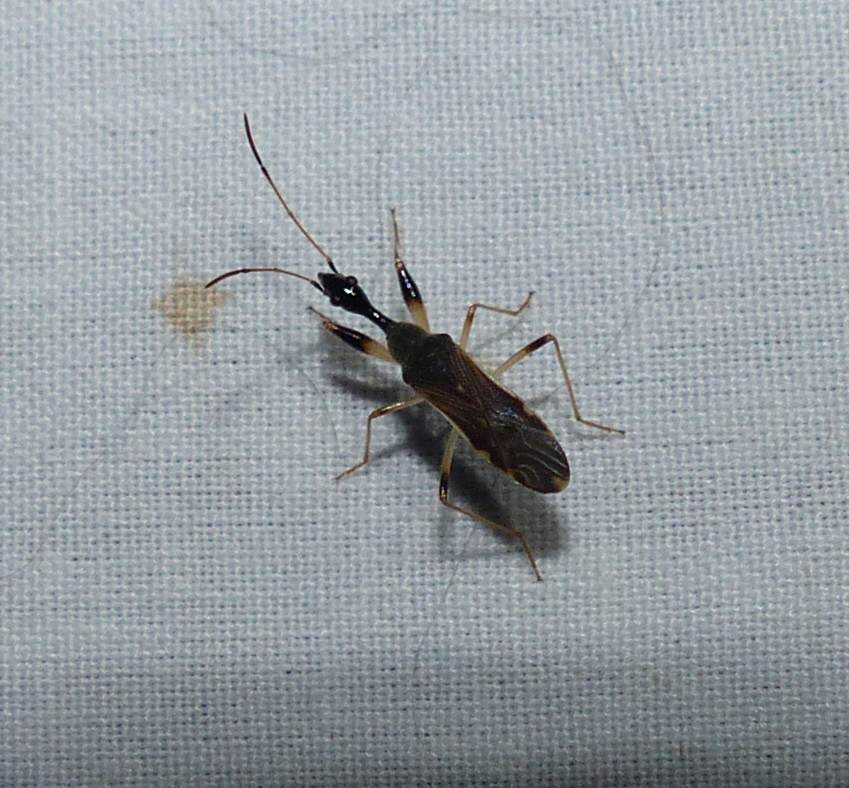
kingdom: Animalia
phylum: Arthropoda
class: Insecta
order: Hemiptera
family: Rhyparochromidae
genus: Myodocha
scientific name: Myodocha serripes
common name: Long-necked seed bug
